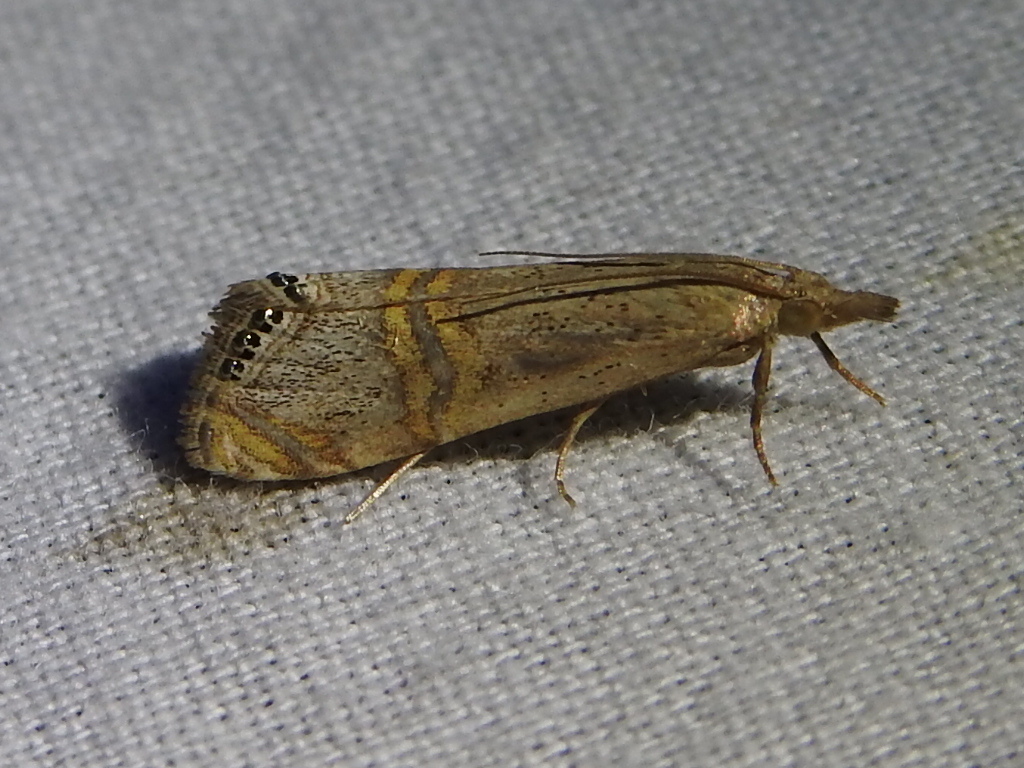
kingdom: Animalia
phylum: Arthropoda
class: Insecta
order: Lepidoptera
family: Crambidae
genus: Euchromius
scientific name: Euchromius ocellea
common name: Necklace veneer moth
